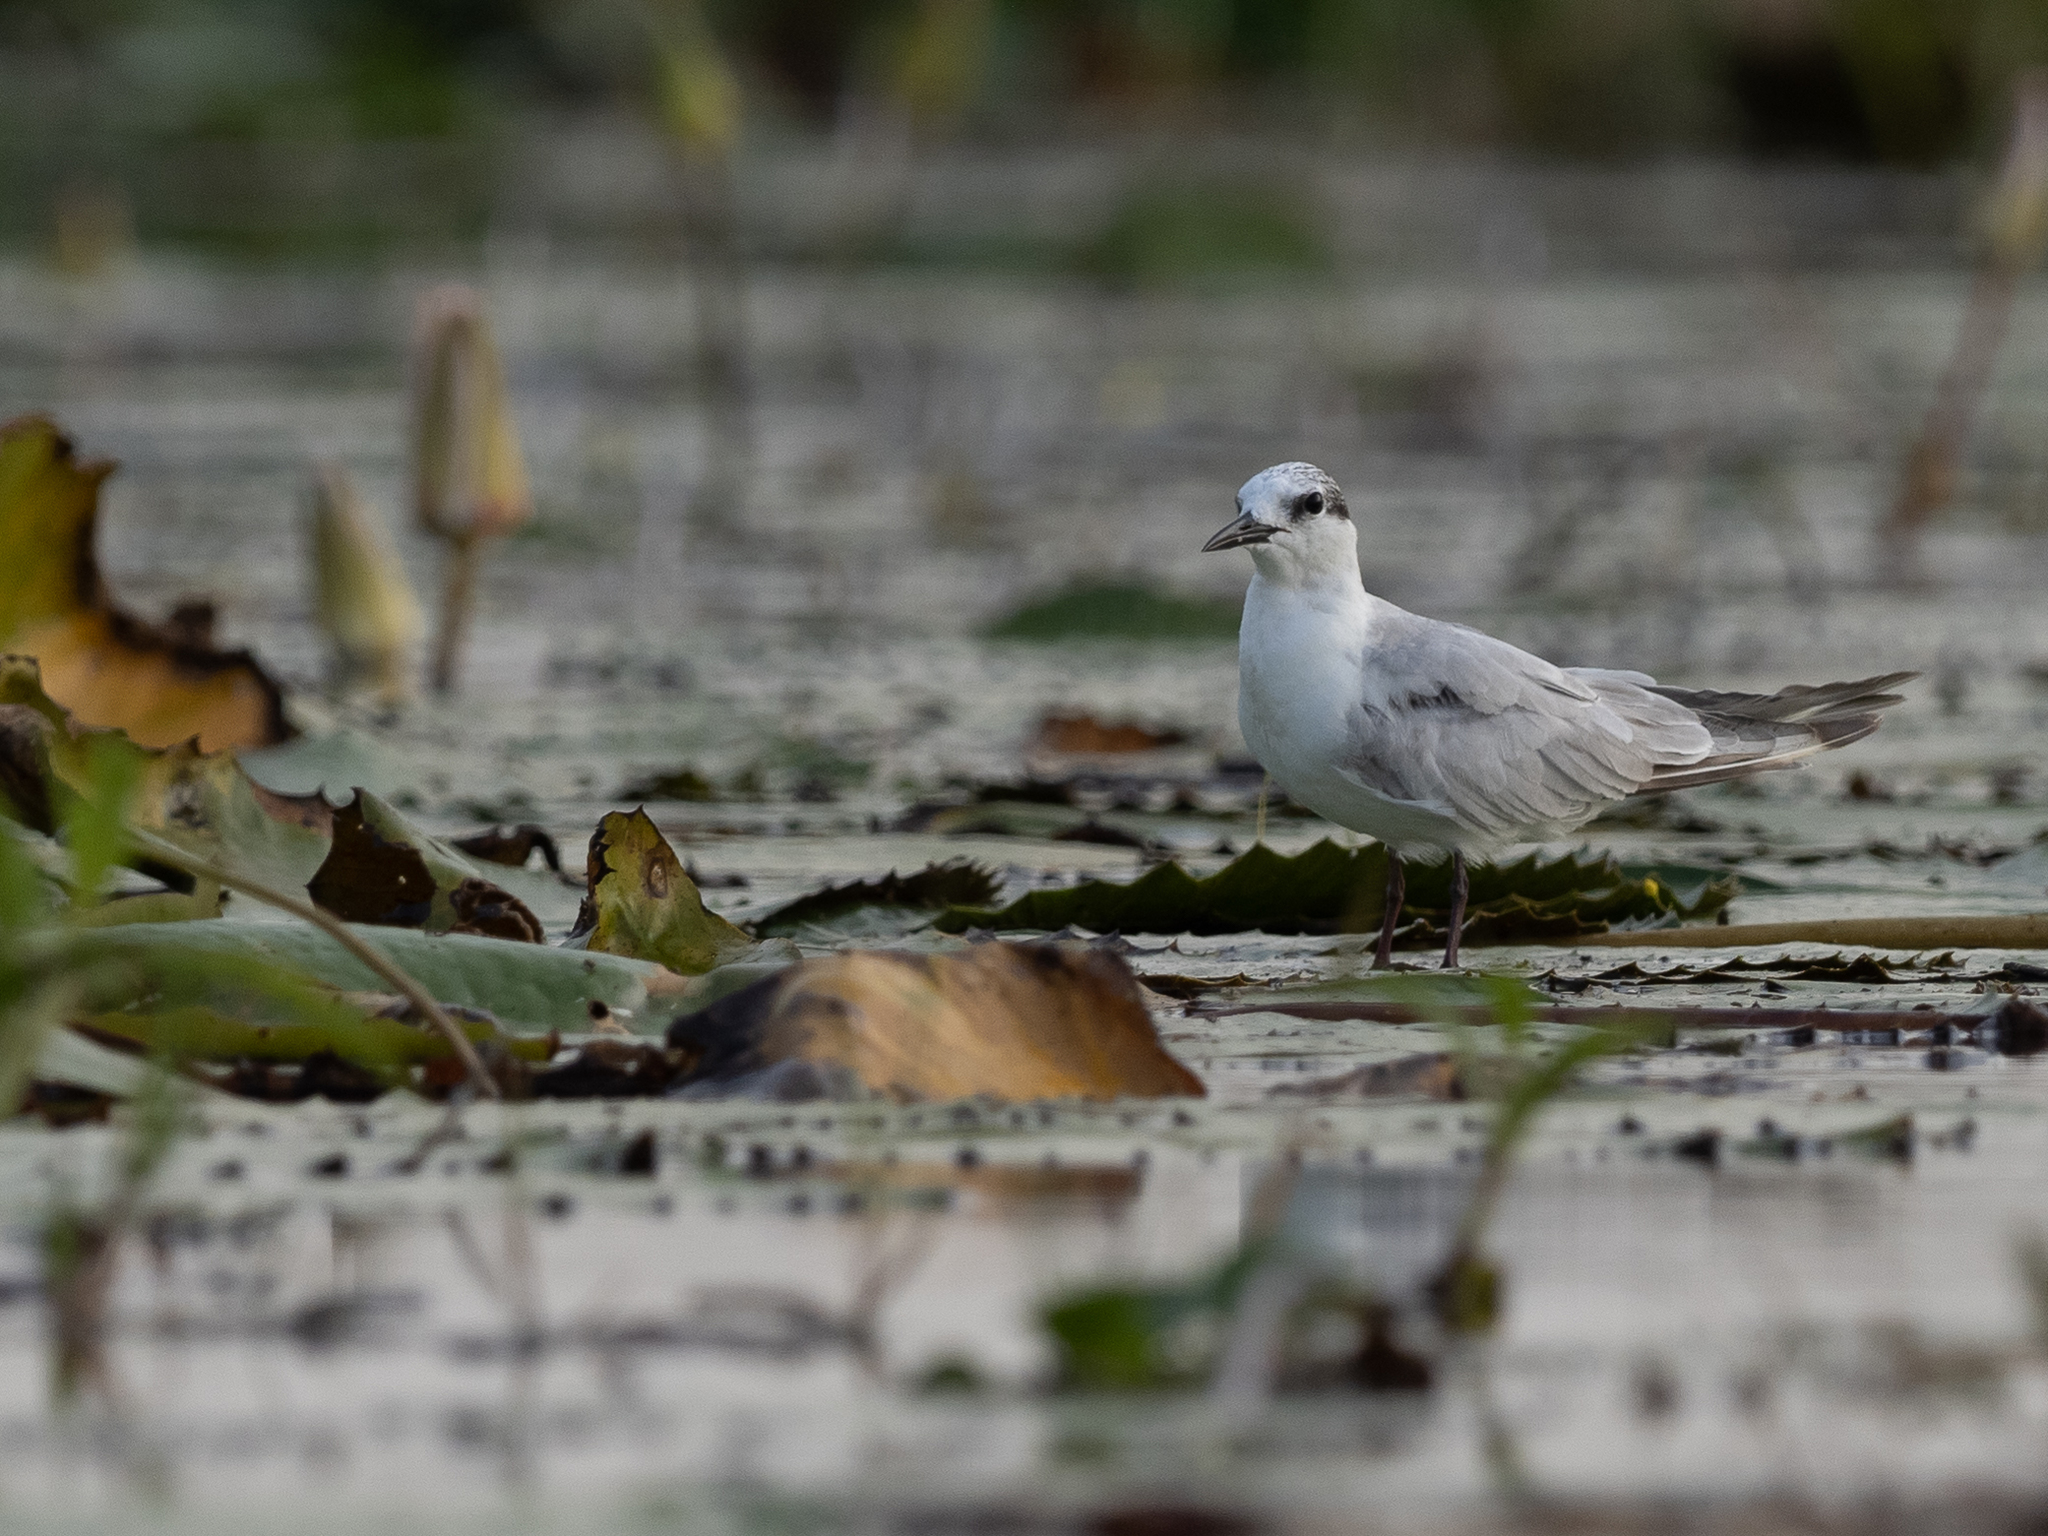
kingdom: Animalia
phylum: Chordata
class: Aves
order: Charadriiformes
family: Laridae
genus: Chlidonias
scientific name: Chlidonias hybrida
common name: Whiskered tern
